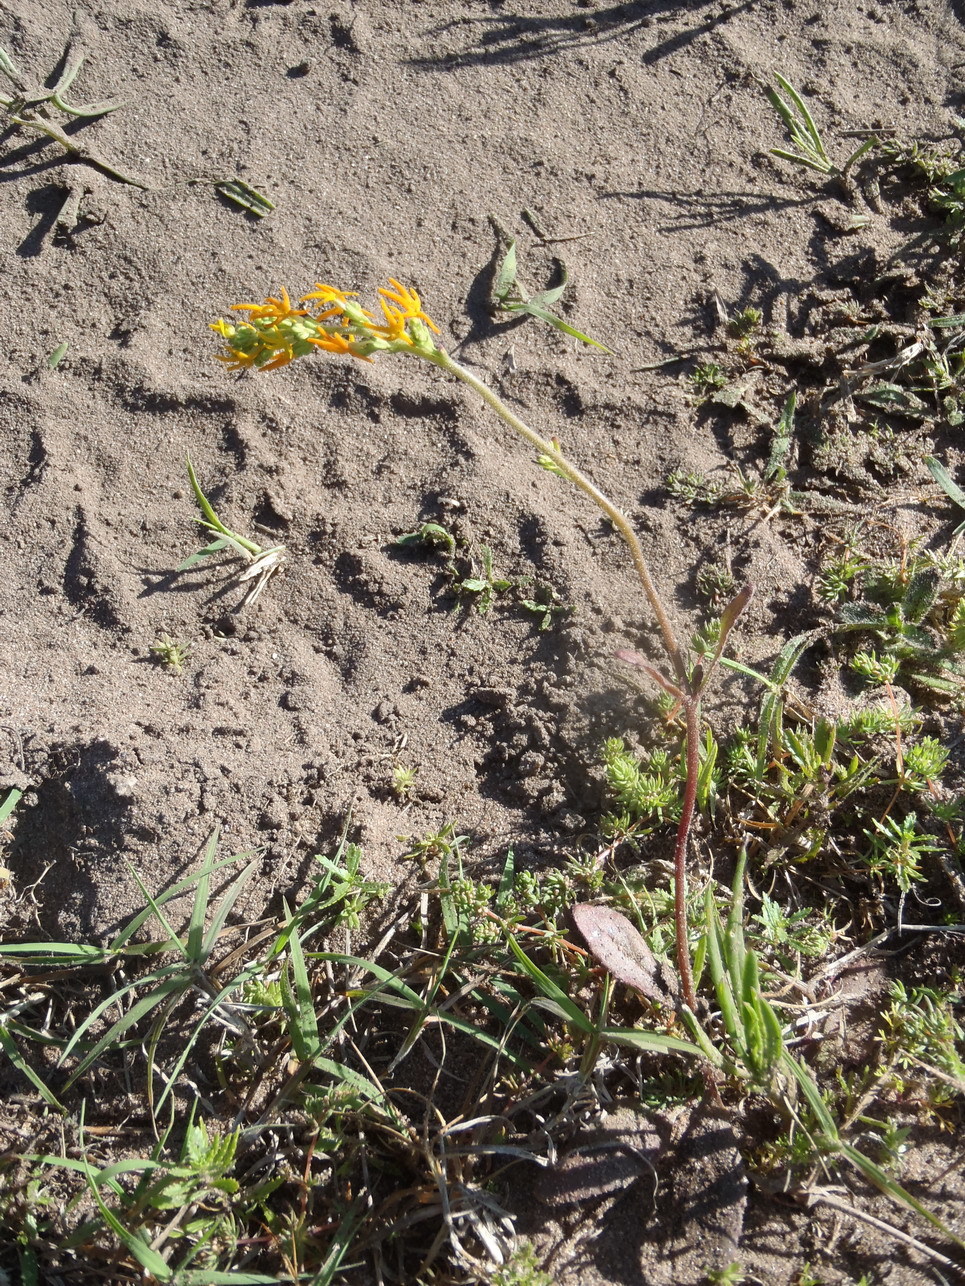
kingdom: Plantae
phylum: Tracheophyta
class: Magnoliopsida
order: Lamiales
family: Scrophulariaceae
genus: Manulea
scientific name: Manulea obovata
